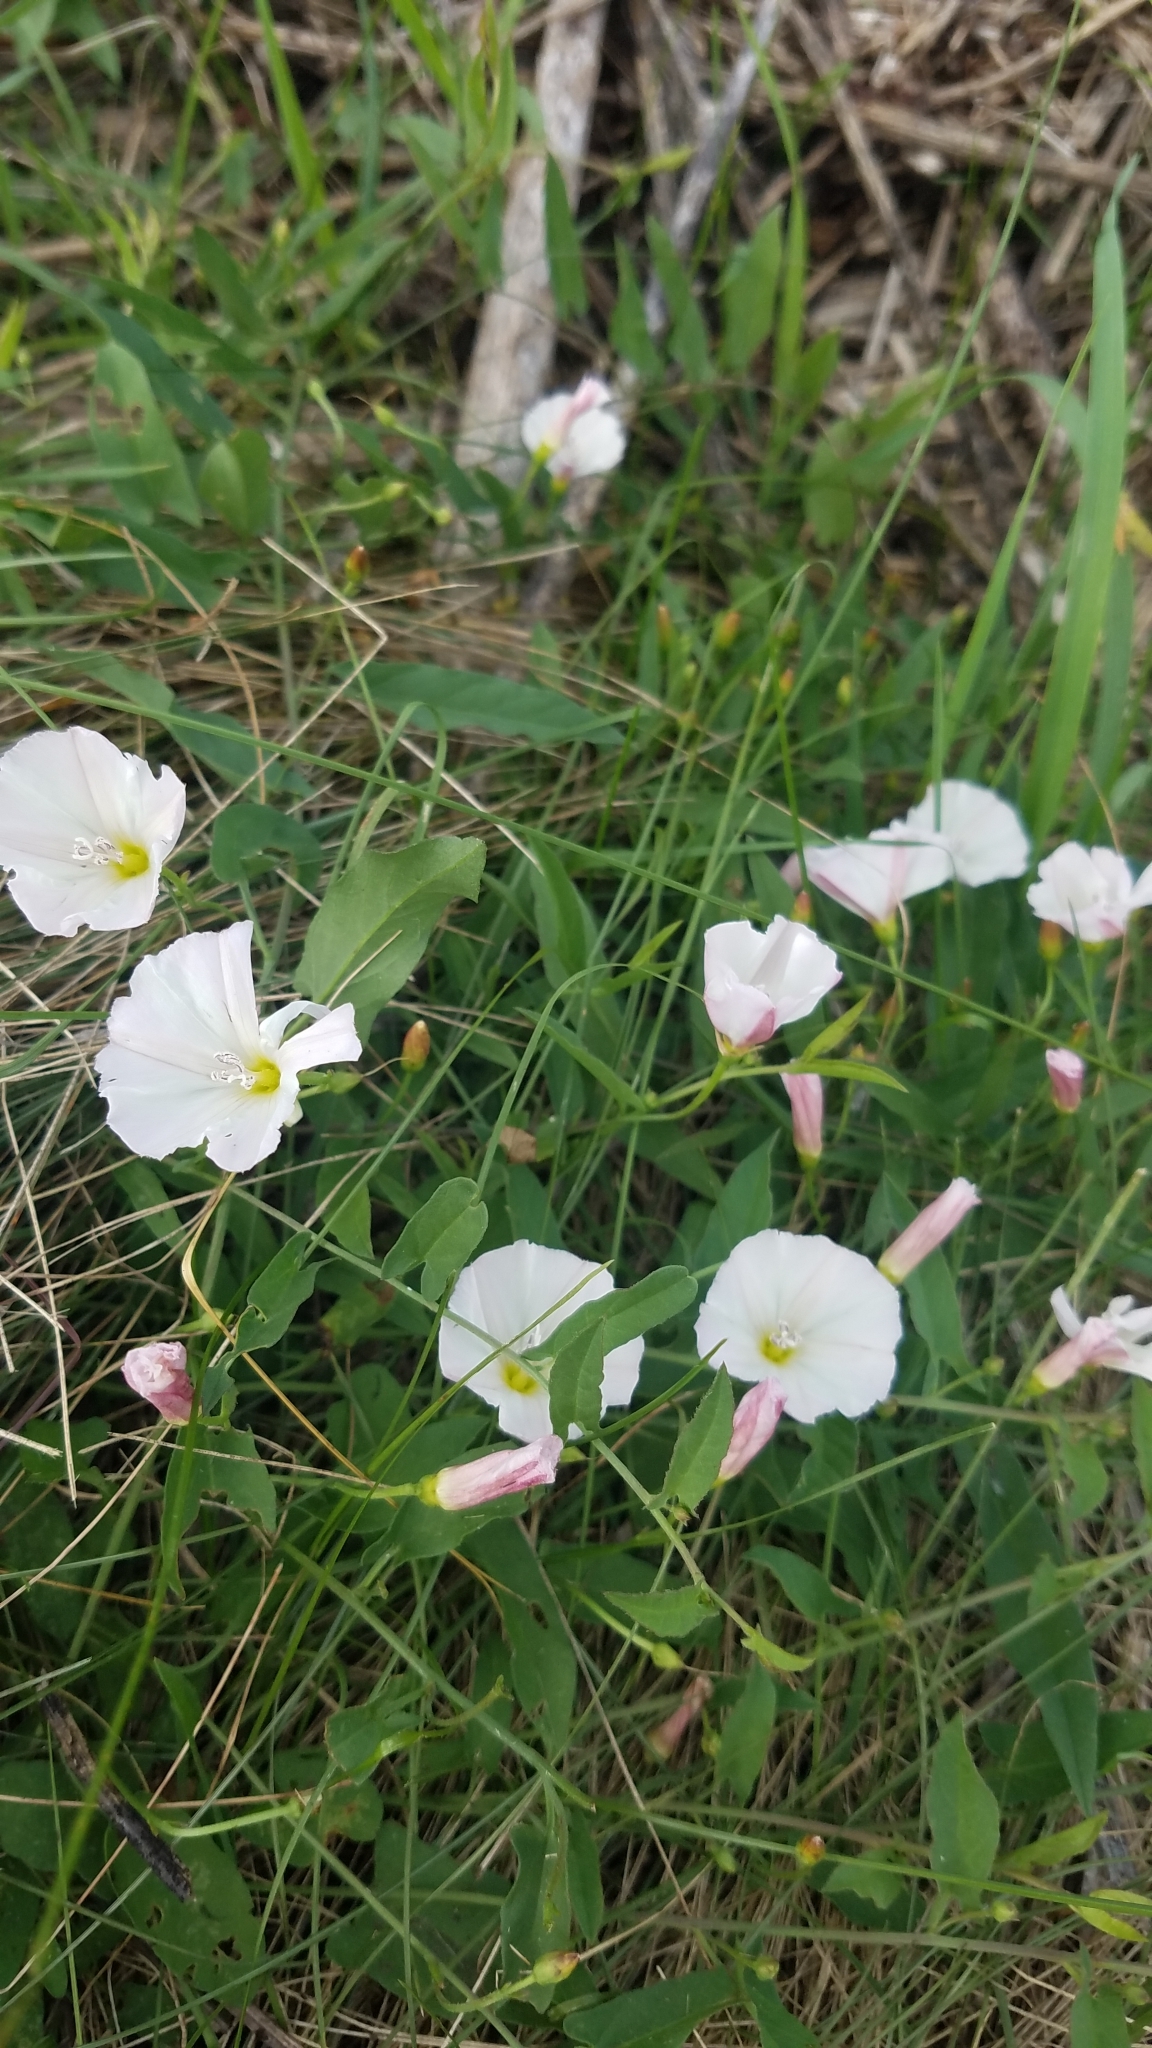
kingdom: Plantae
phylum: Tracheophyta
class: Magnoliopsida
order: Solanales
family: Convolvulaceae
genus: Convolvulus
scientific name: Convolvulus arvensis
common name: Field bindweed
